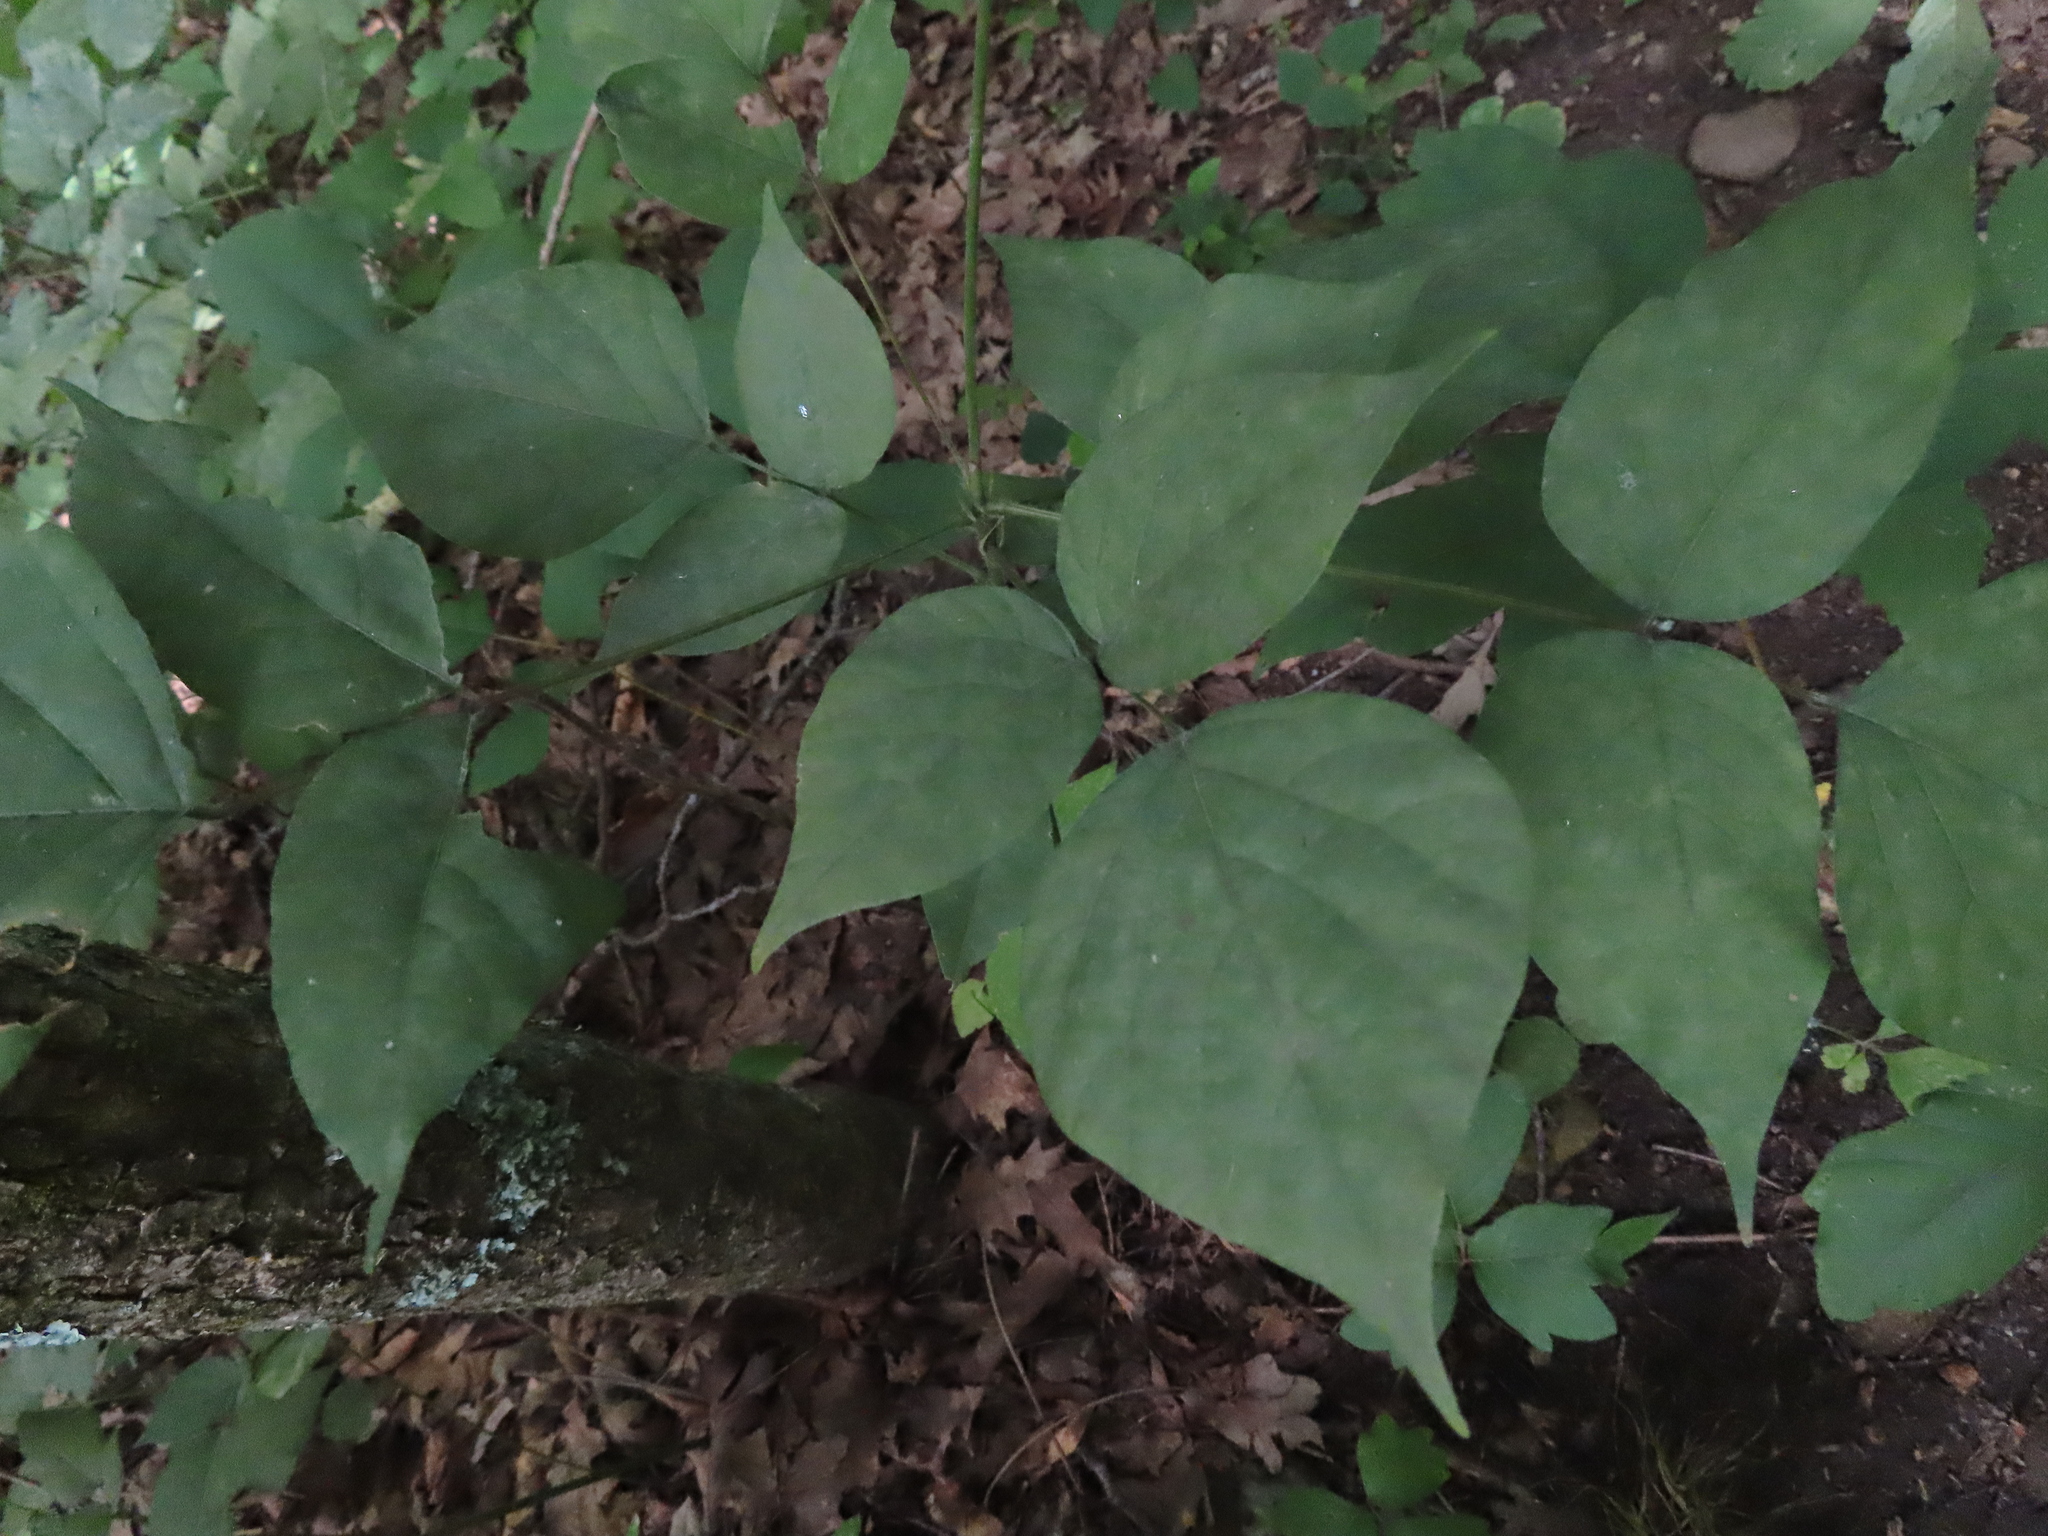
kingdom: Plantae
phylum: Tracheophyta
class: Magnoliopsida
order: Fabales
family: Fabaceae
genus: Hylodesmum
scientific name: Hylodesmum glutinosum
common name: Clustered-leaved tick-trefoil
